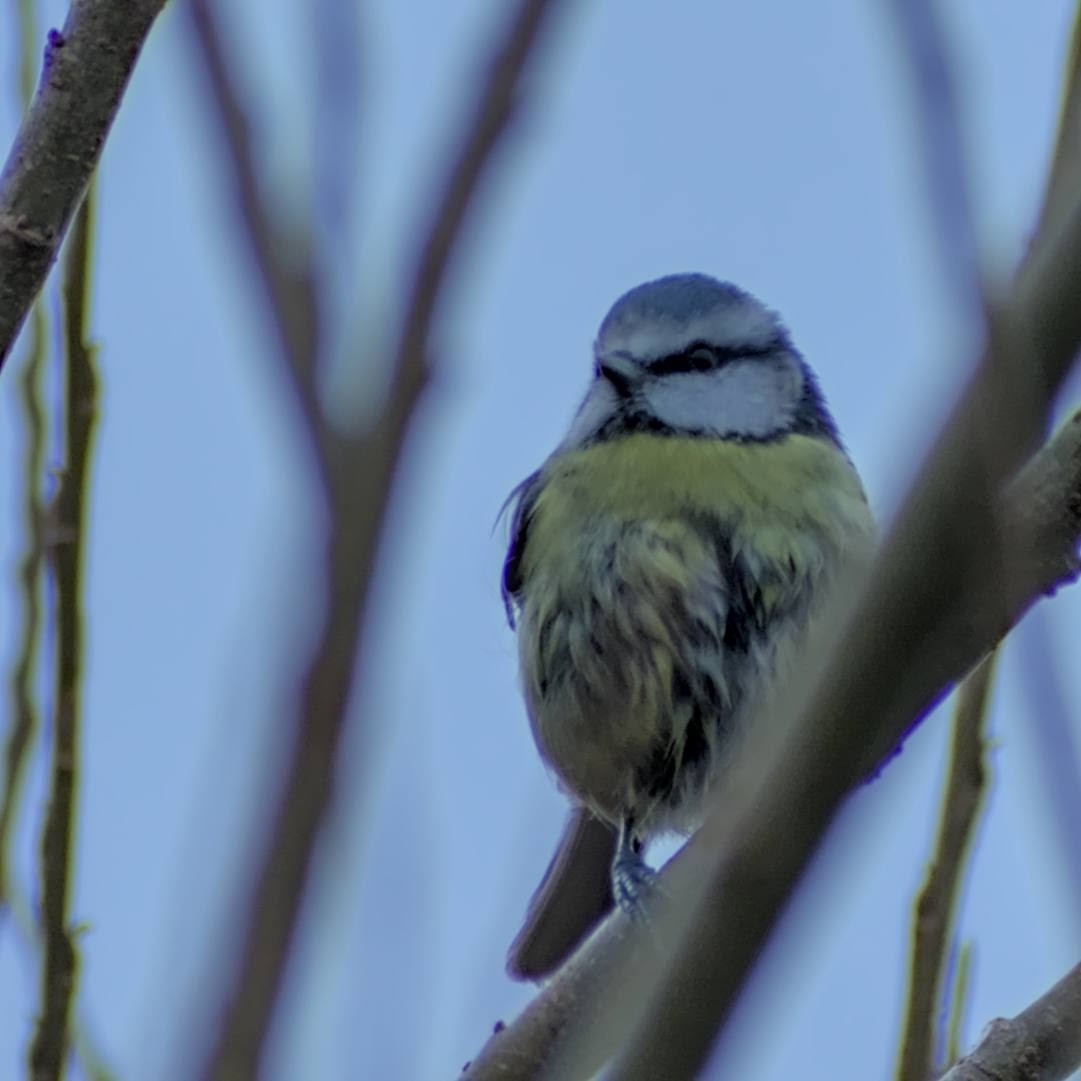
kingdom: Animalia
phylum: Chordata
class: Aves
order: Passeriformes
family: Paridae
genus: Cyanistes
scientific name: Cyanistes caeruleus
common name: Eurasian blue tit
